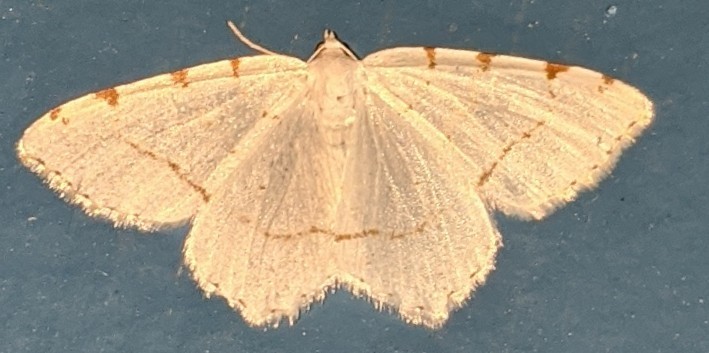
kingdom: Animalia
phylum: Arthropoda
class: Insecta
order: Lepidoptera
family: Geometridae
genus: Macaria
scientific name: Macaria pustularia
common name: Lesser maple spanworm moth
